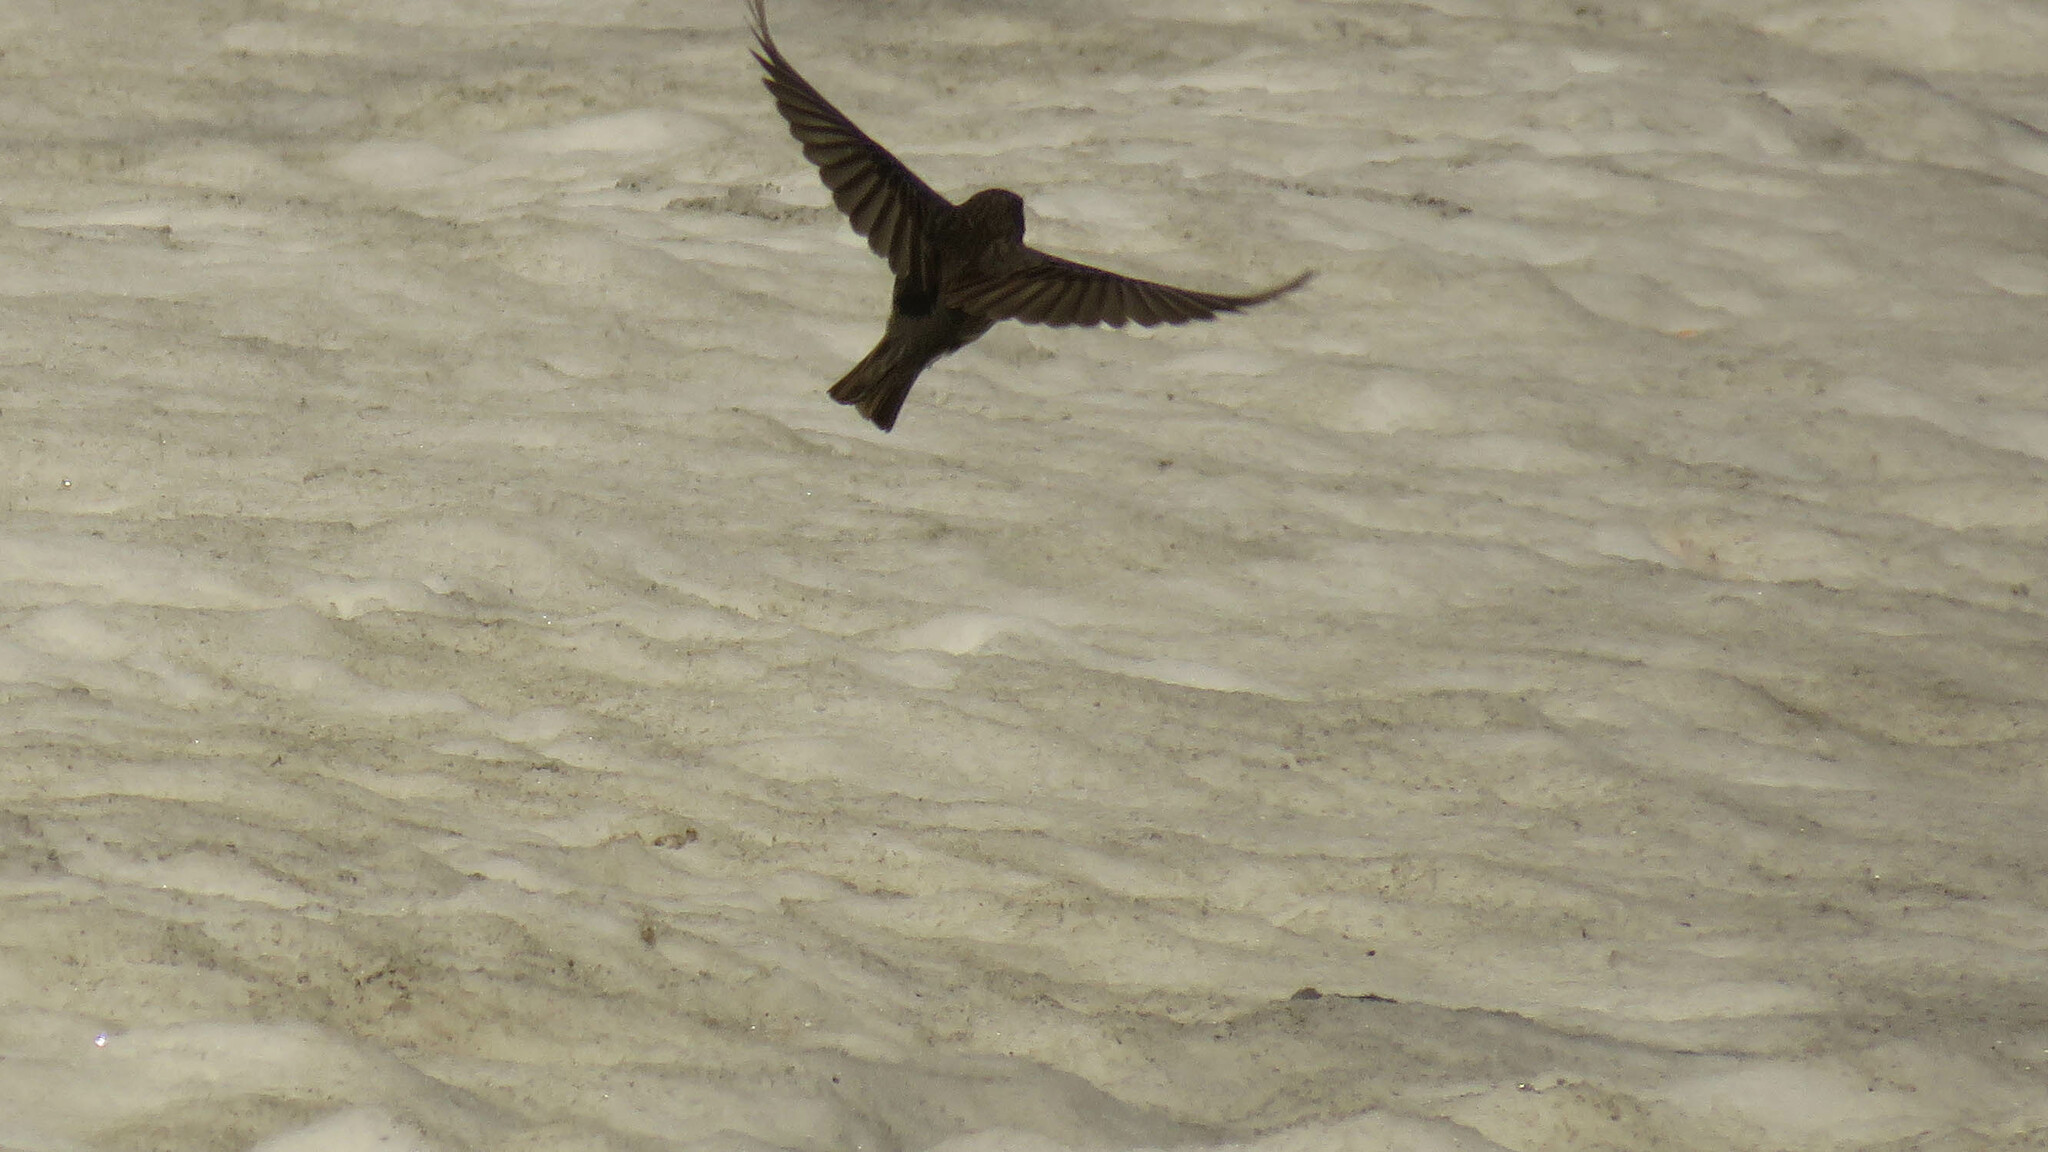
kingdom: Animalia
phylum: Chordata
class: Aves
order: Passeriformes
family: Thraupidae
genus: Geospizopsis
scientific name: Geospizopsis unicolor
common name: Plumbeous sierra-finch
